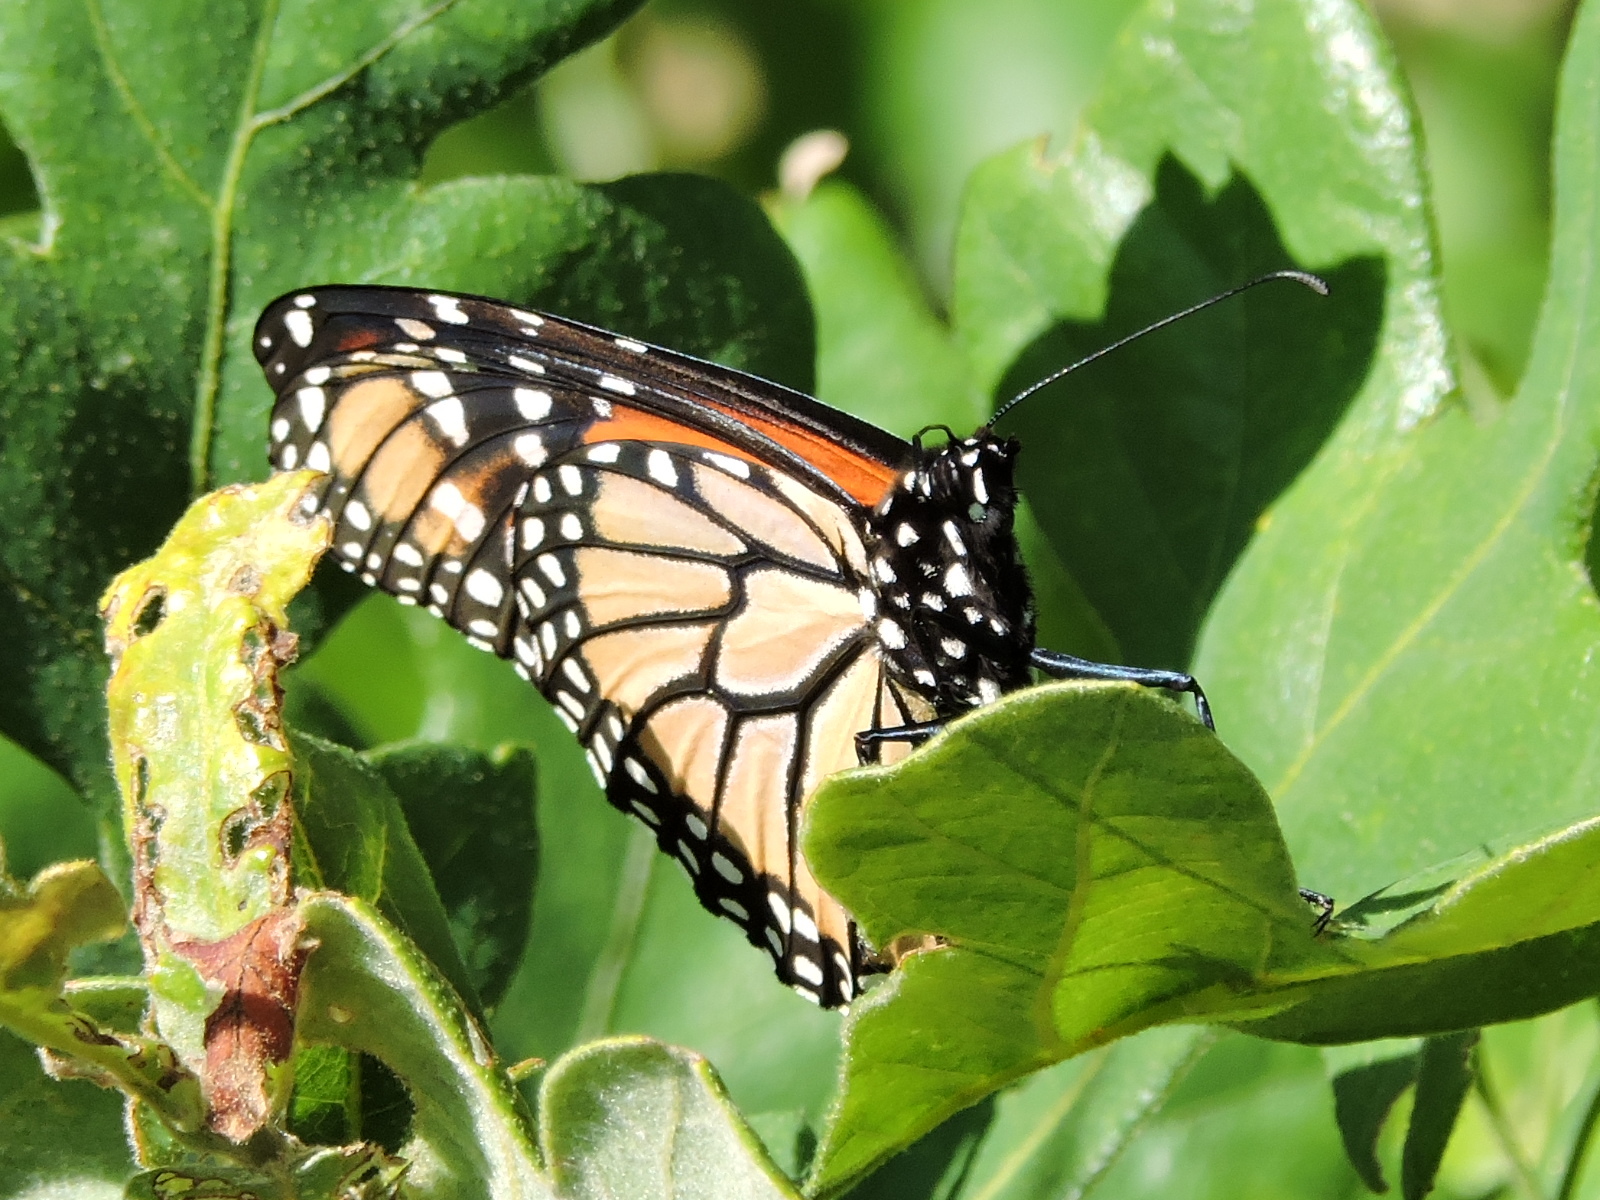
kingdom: Animalia
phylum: Arthropoda
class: Insecta
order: Lepidoptera
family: Nymphalidae
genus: Danaus
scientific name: Danaus plexippus
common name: Monarch
